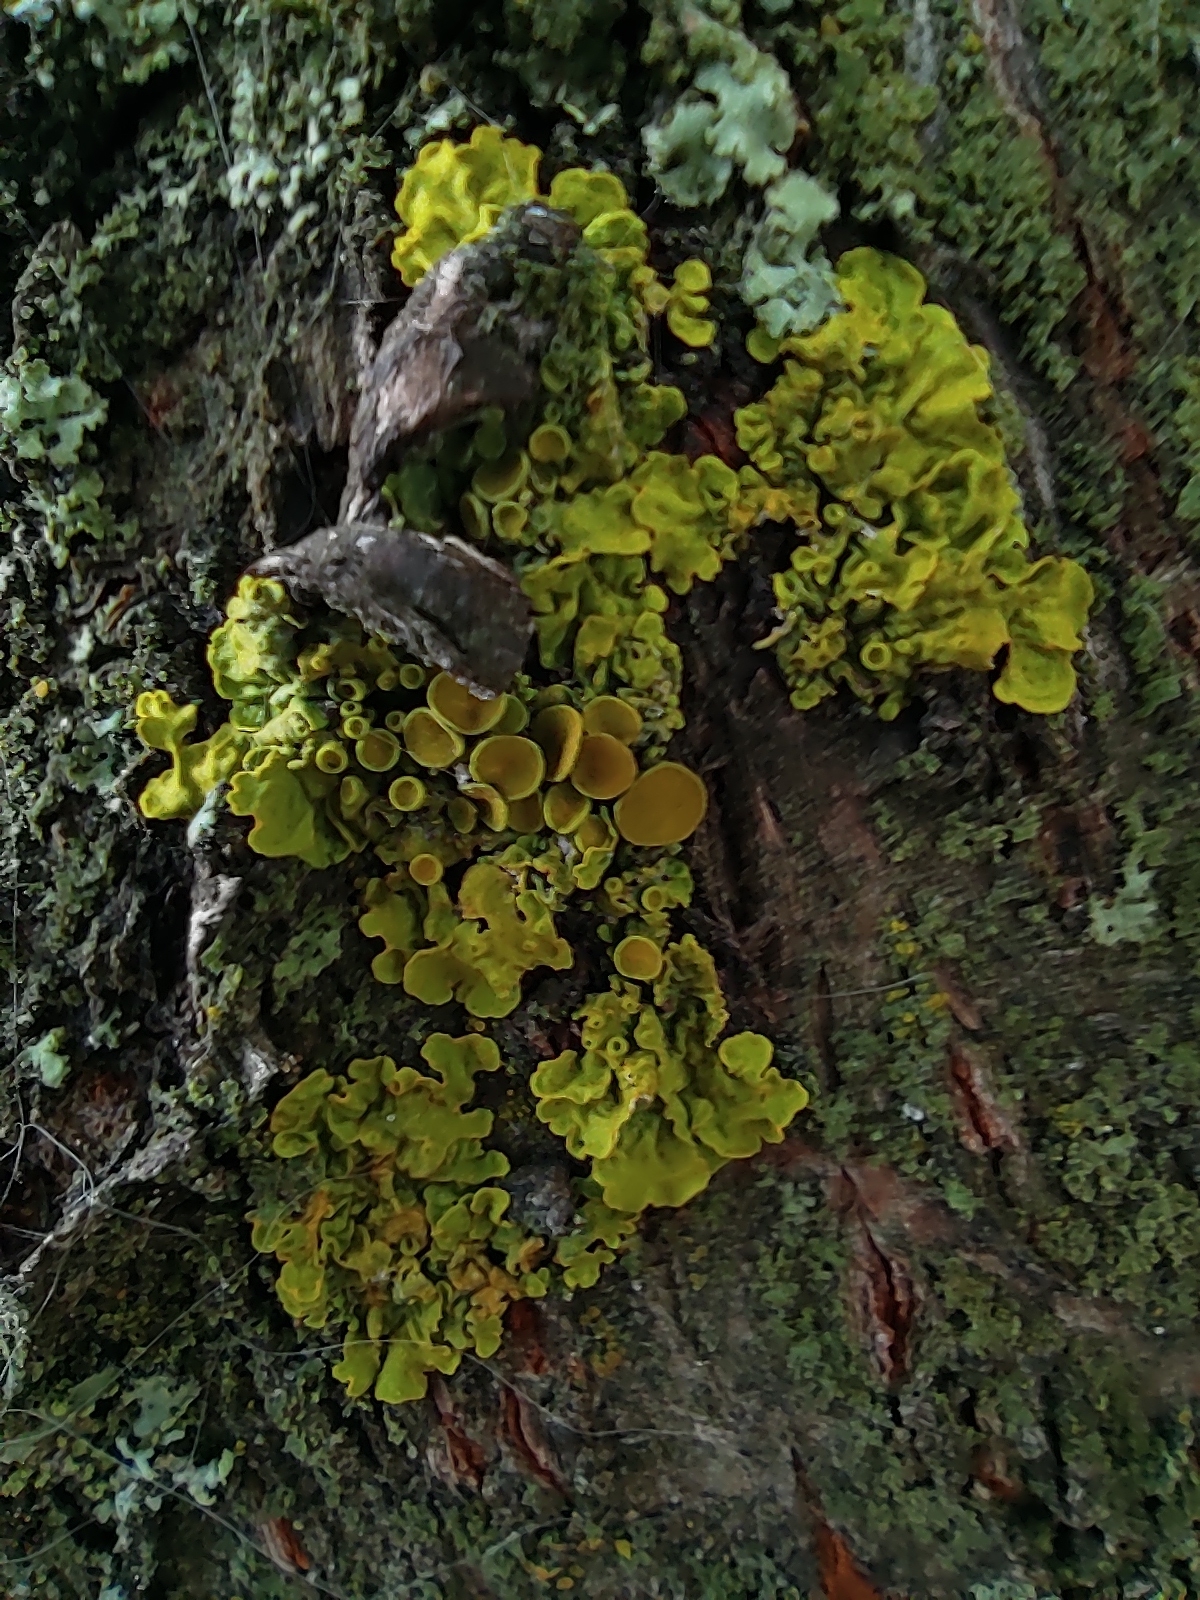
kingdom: Fungi
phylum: Ascomycota
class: Lecanoromycetes
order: Teloschistales
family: Teloschistaceae
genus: Xanthoria
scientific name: Xanthoria parietina
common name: Common orange lichen
